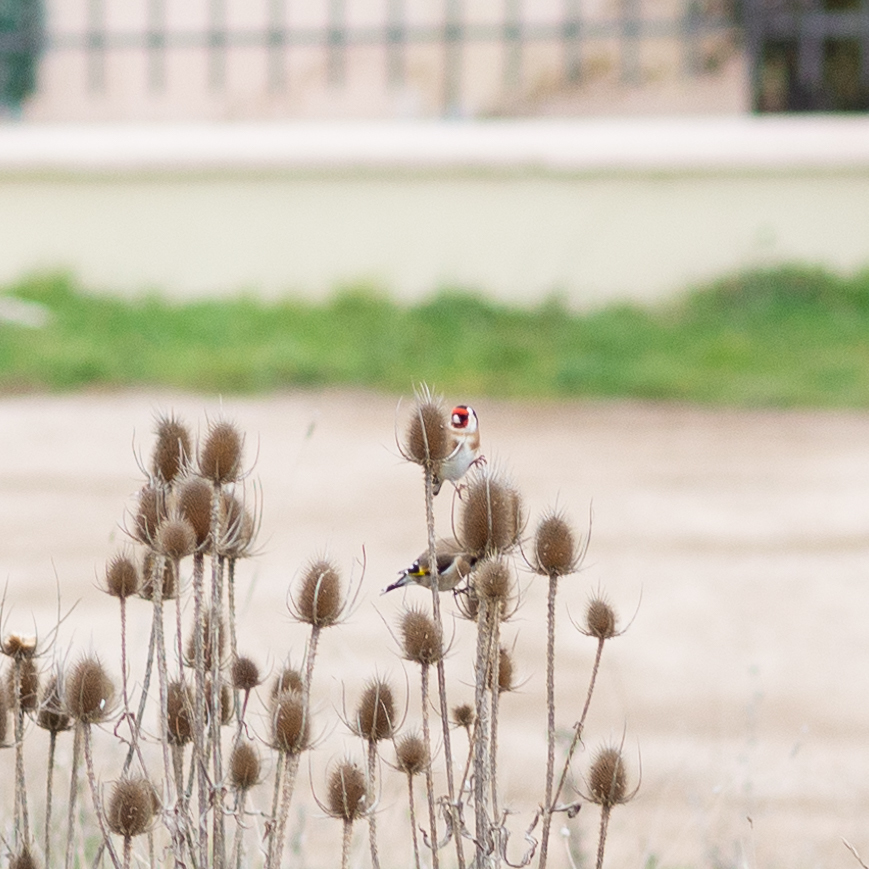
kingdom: Animalia
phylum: Chordata
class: Aves
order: Passeriformes
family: Fringillidae
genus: Carduelis
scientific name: Carduelis carduelis
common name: European goldfinch
